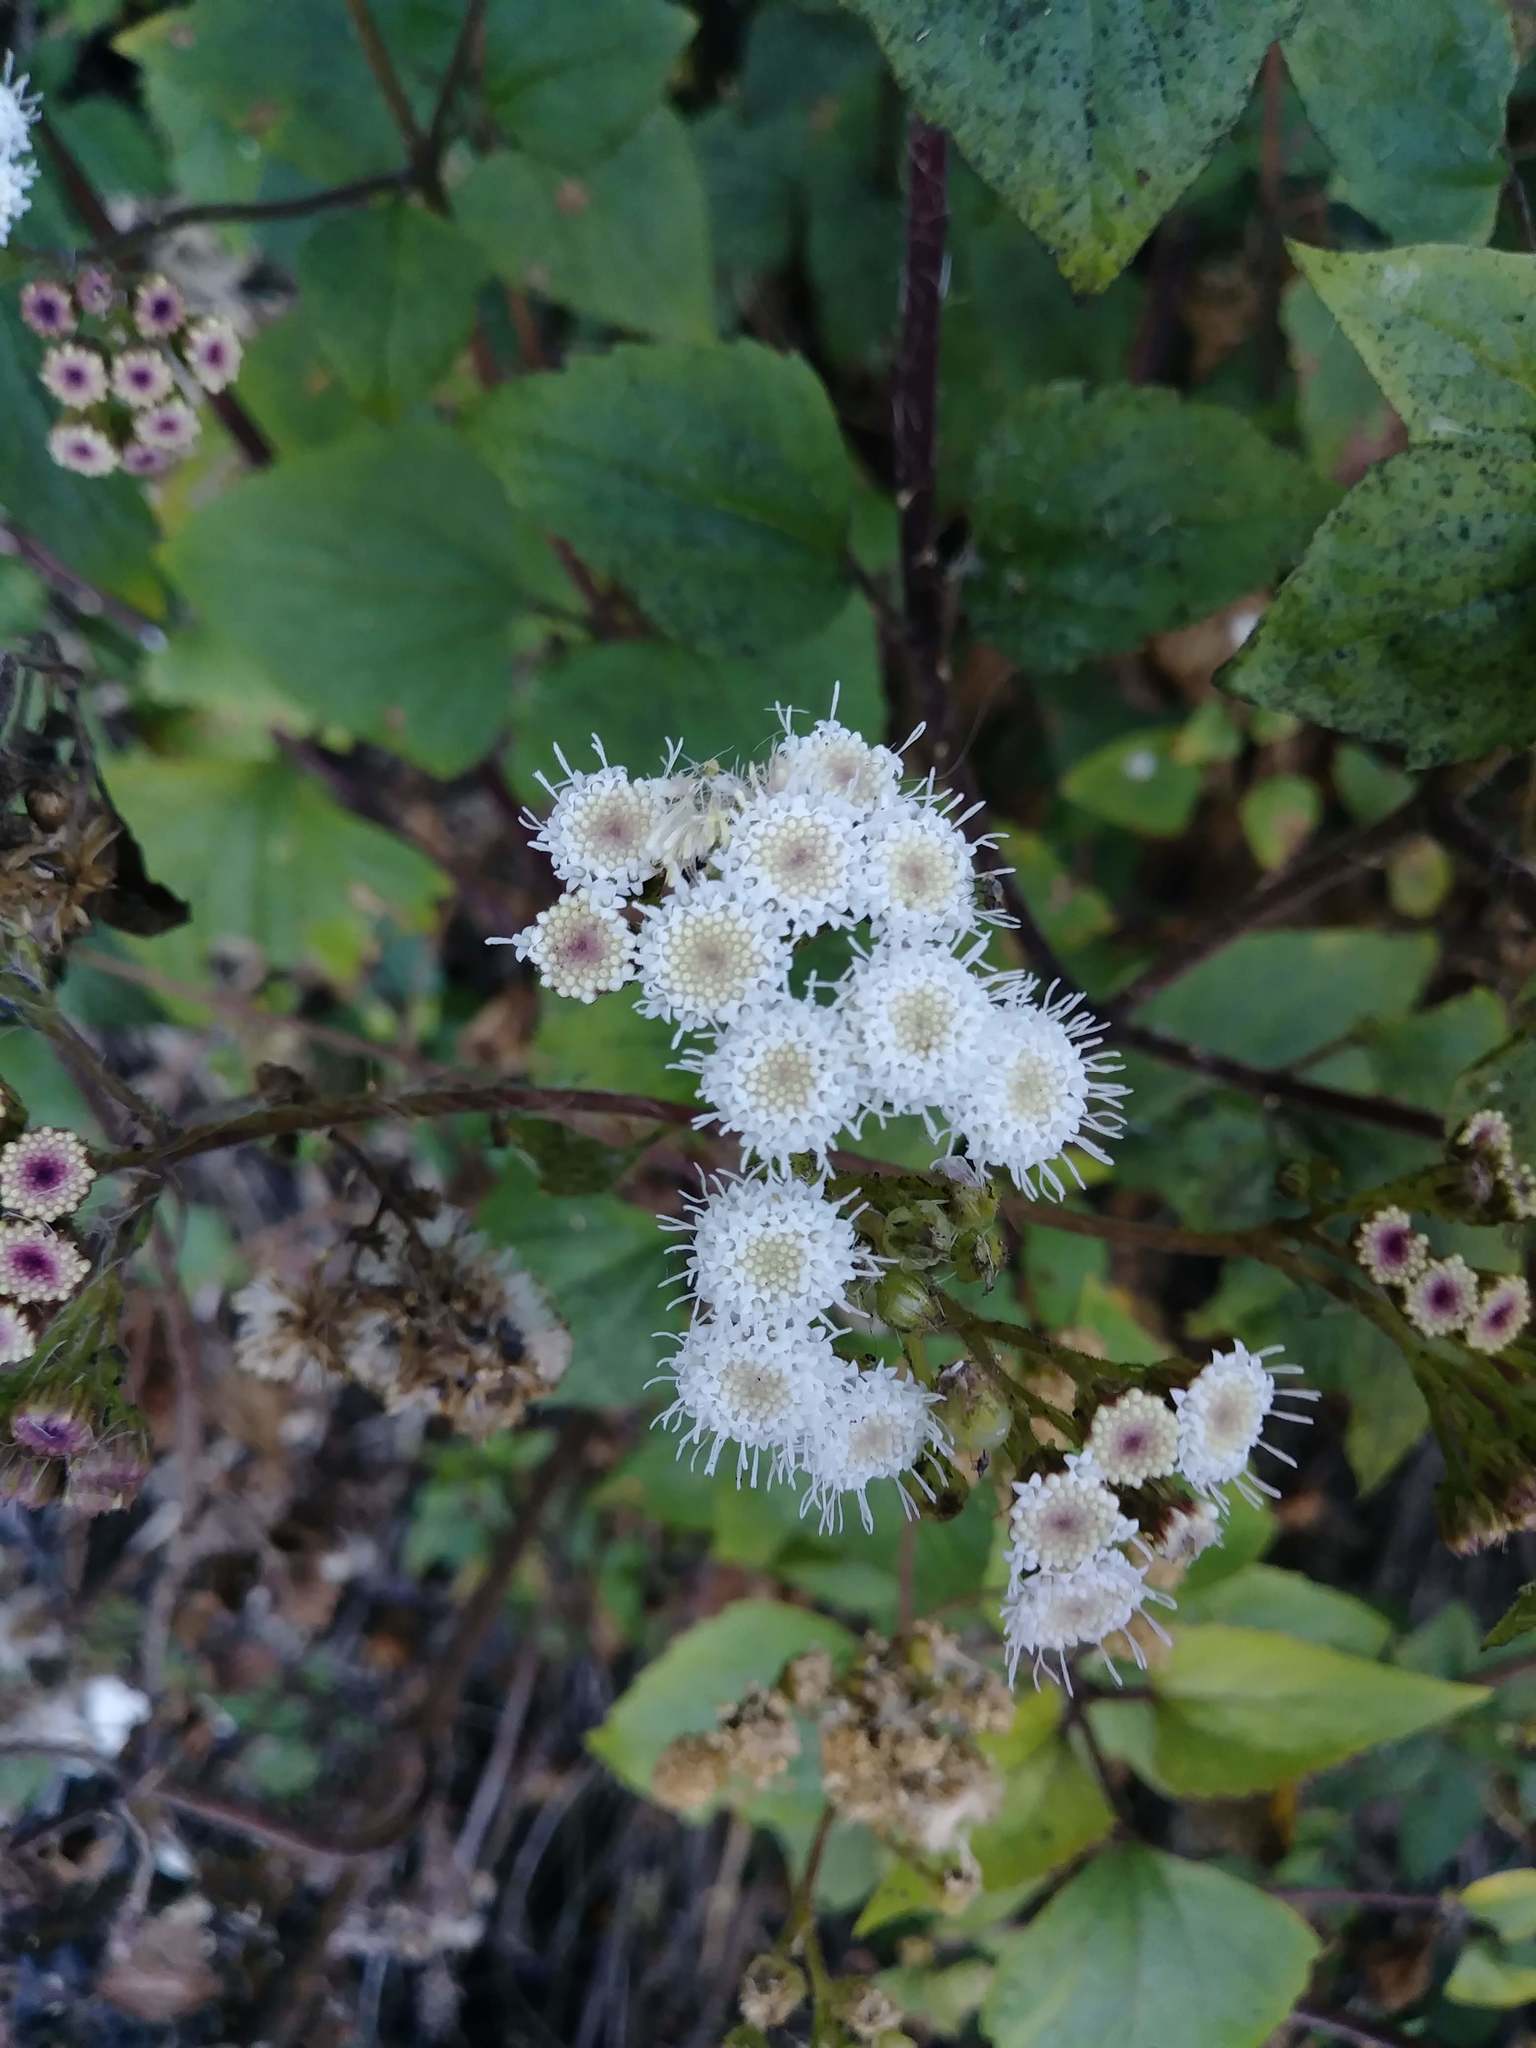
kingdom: Plantae
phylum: Tracheophyta
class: Magnoliopsida
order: Asterales
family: Asteraceae
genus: Ageratina
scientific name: Ageratina adenophora
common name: Sticky snakeroot
